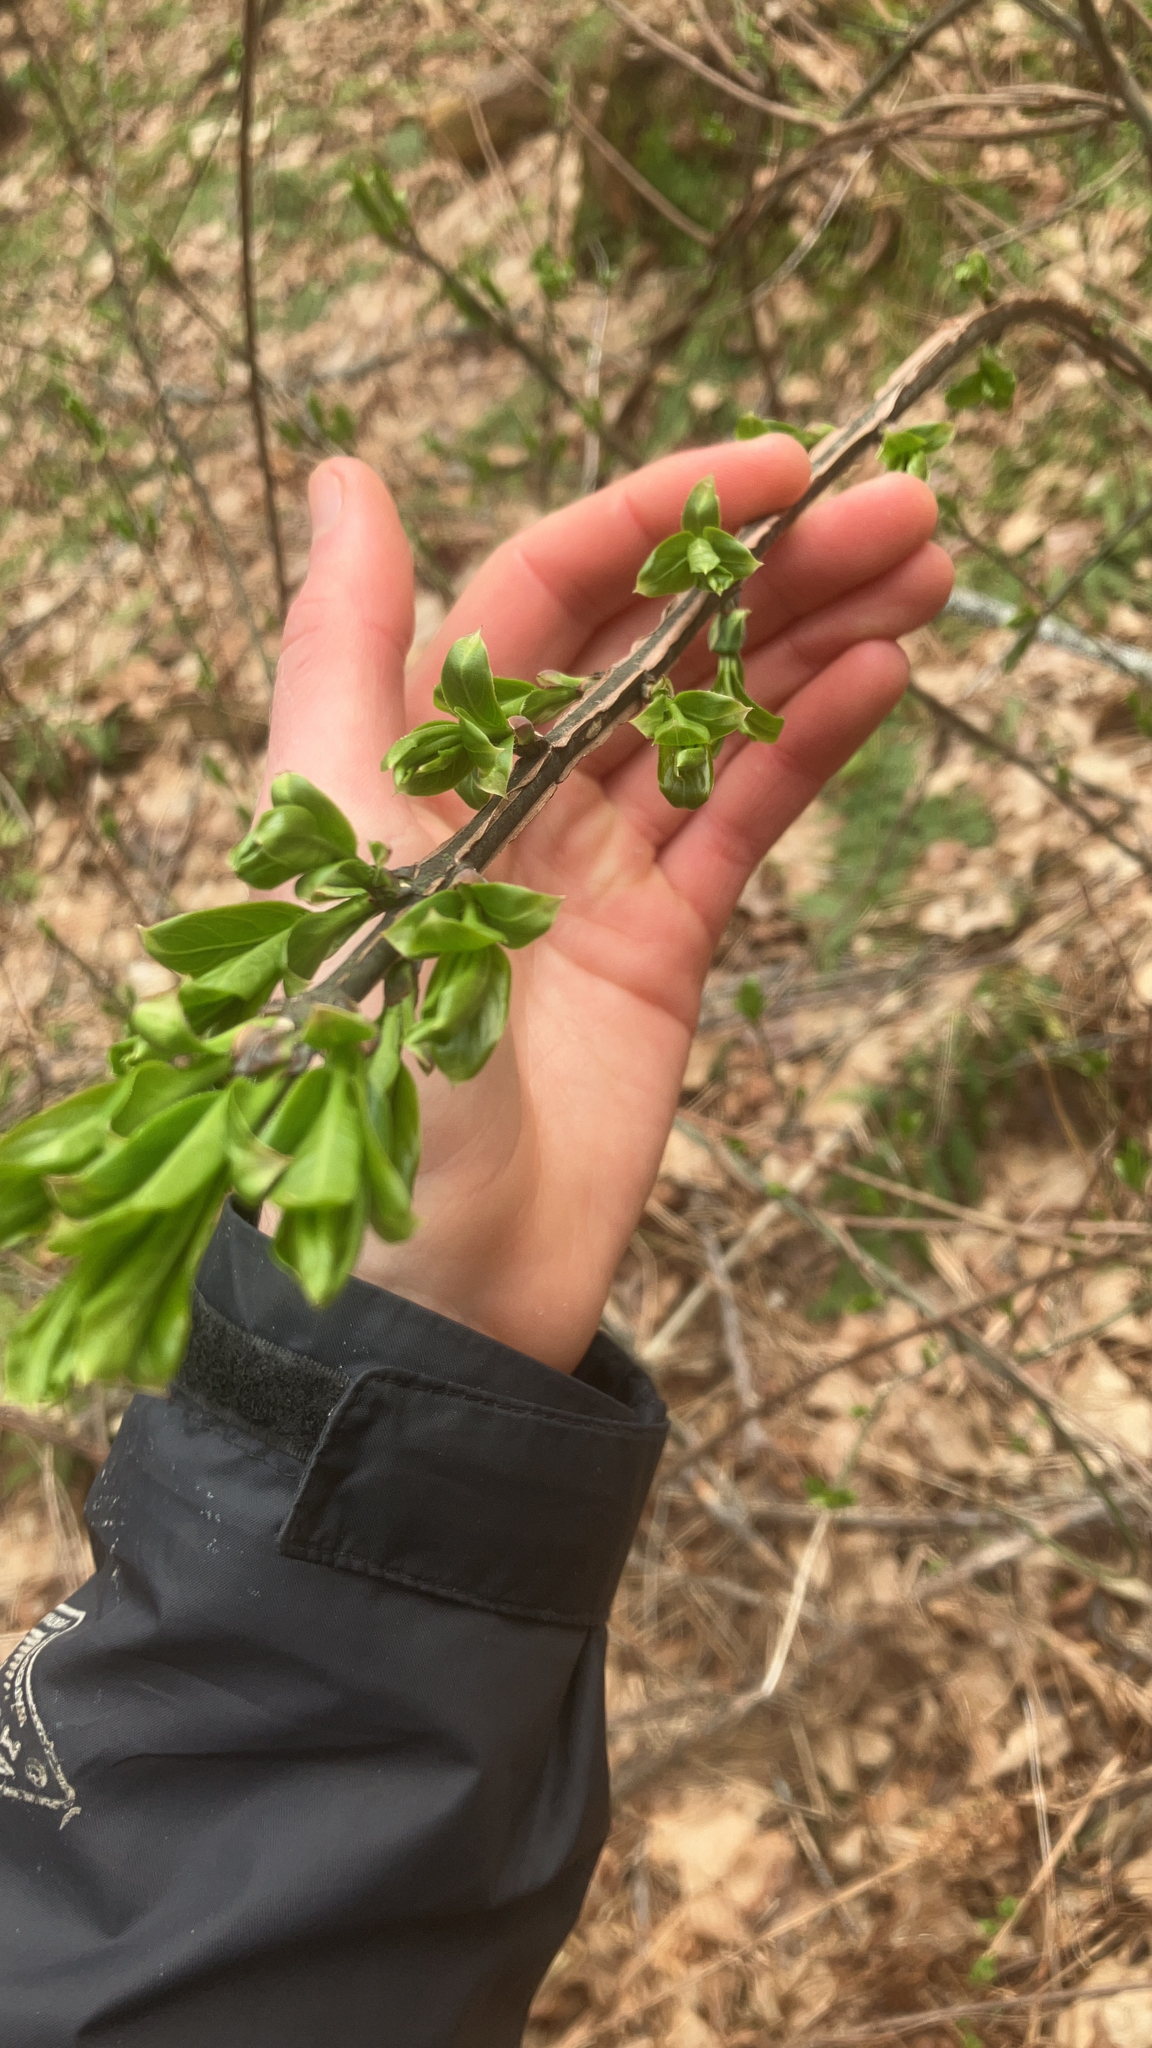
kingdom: Plantae
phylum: Tracheophyta
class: Magnoliopsida
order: Celastrales
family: Celastraceae
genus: Euonymus
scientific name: Euonymus alatus
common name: Winged euonymus
